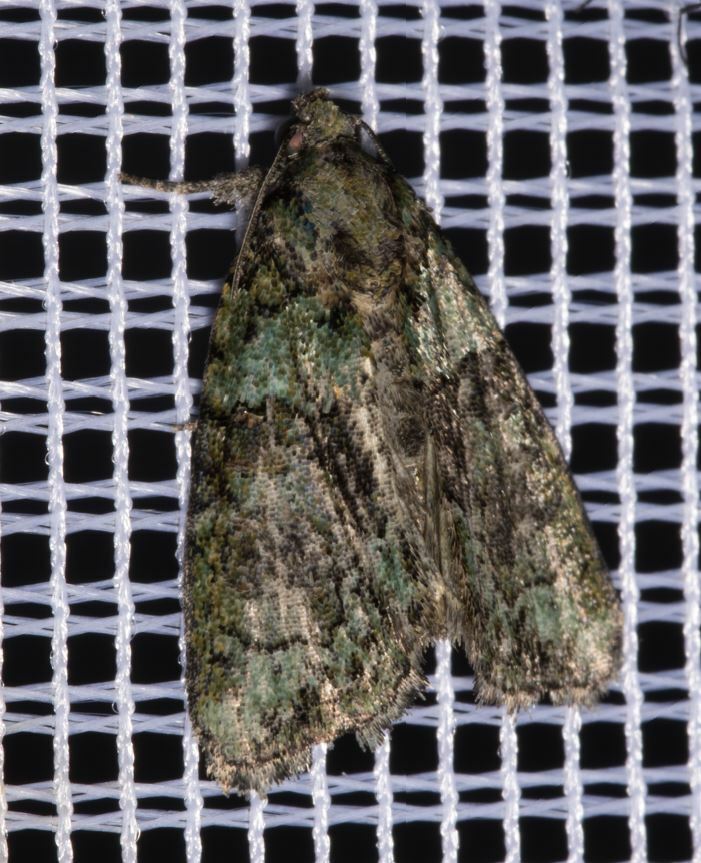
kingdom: Animalia
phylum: Arthropoda
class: Insecta
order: Lepidoptera
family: Noctuidae
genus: Cryphia
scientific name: Cryphia algae
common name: Tree-lichen beauty
